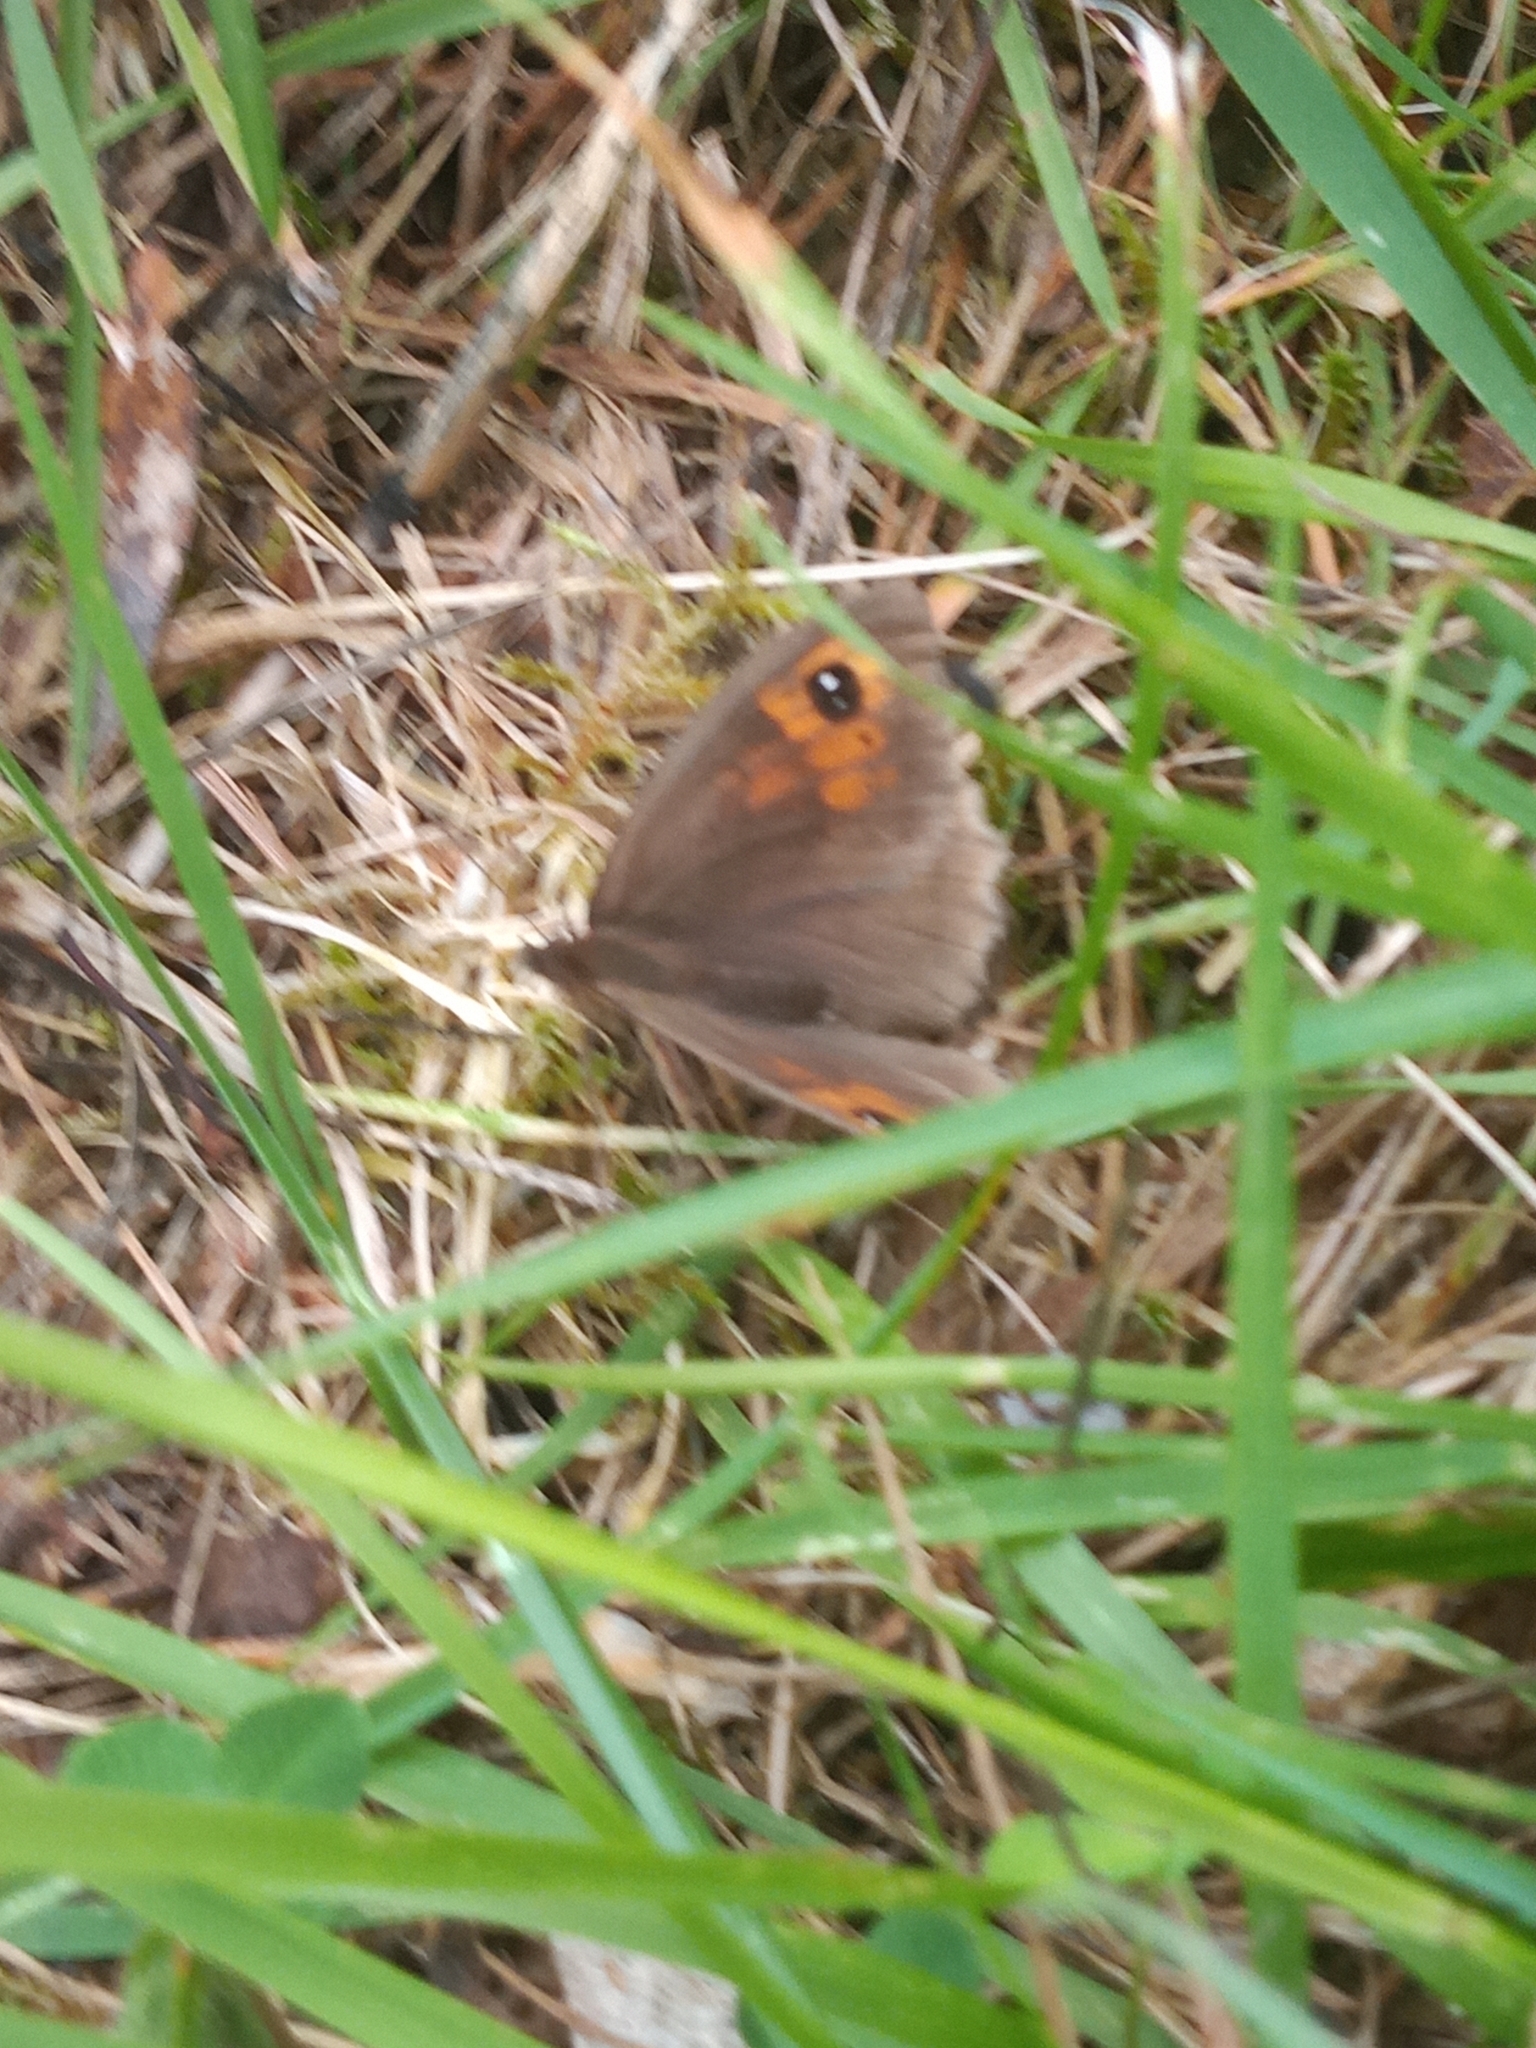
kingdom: Animalia
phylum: Arthropoda
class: Insecta
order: Lepidoptera
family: Nymphalidae
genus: Maniola
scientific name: Maniola jurtina
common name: Meadow brown
